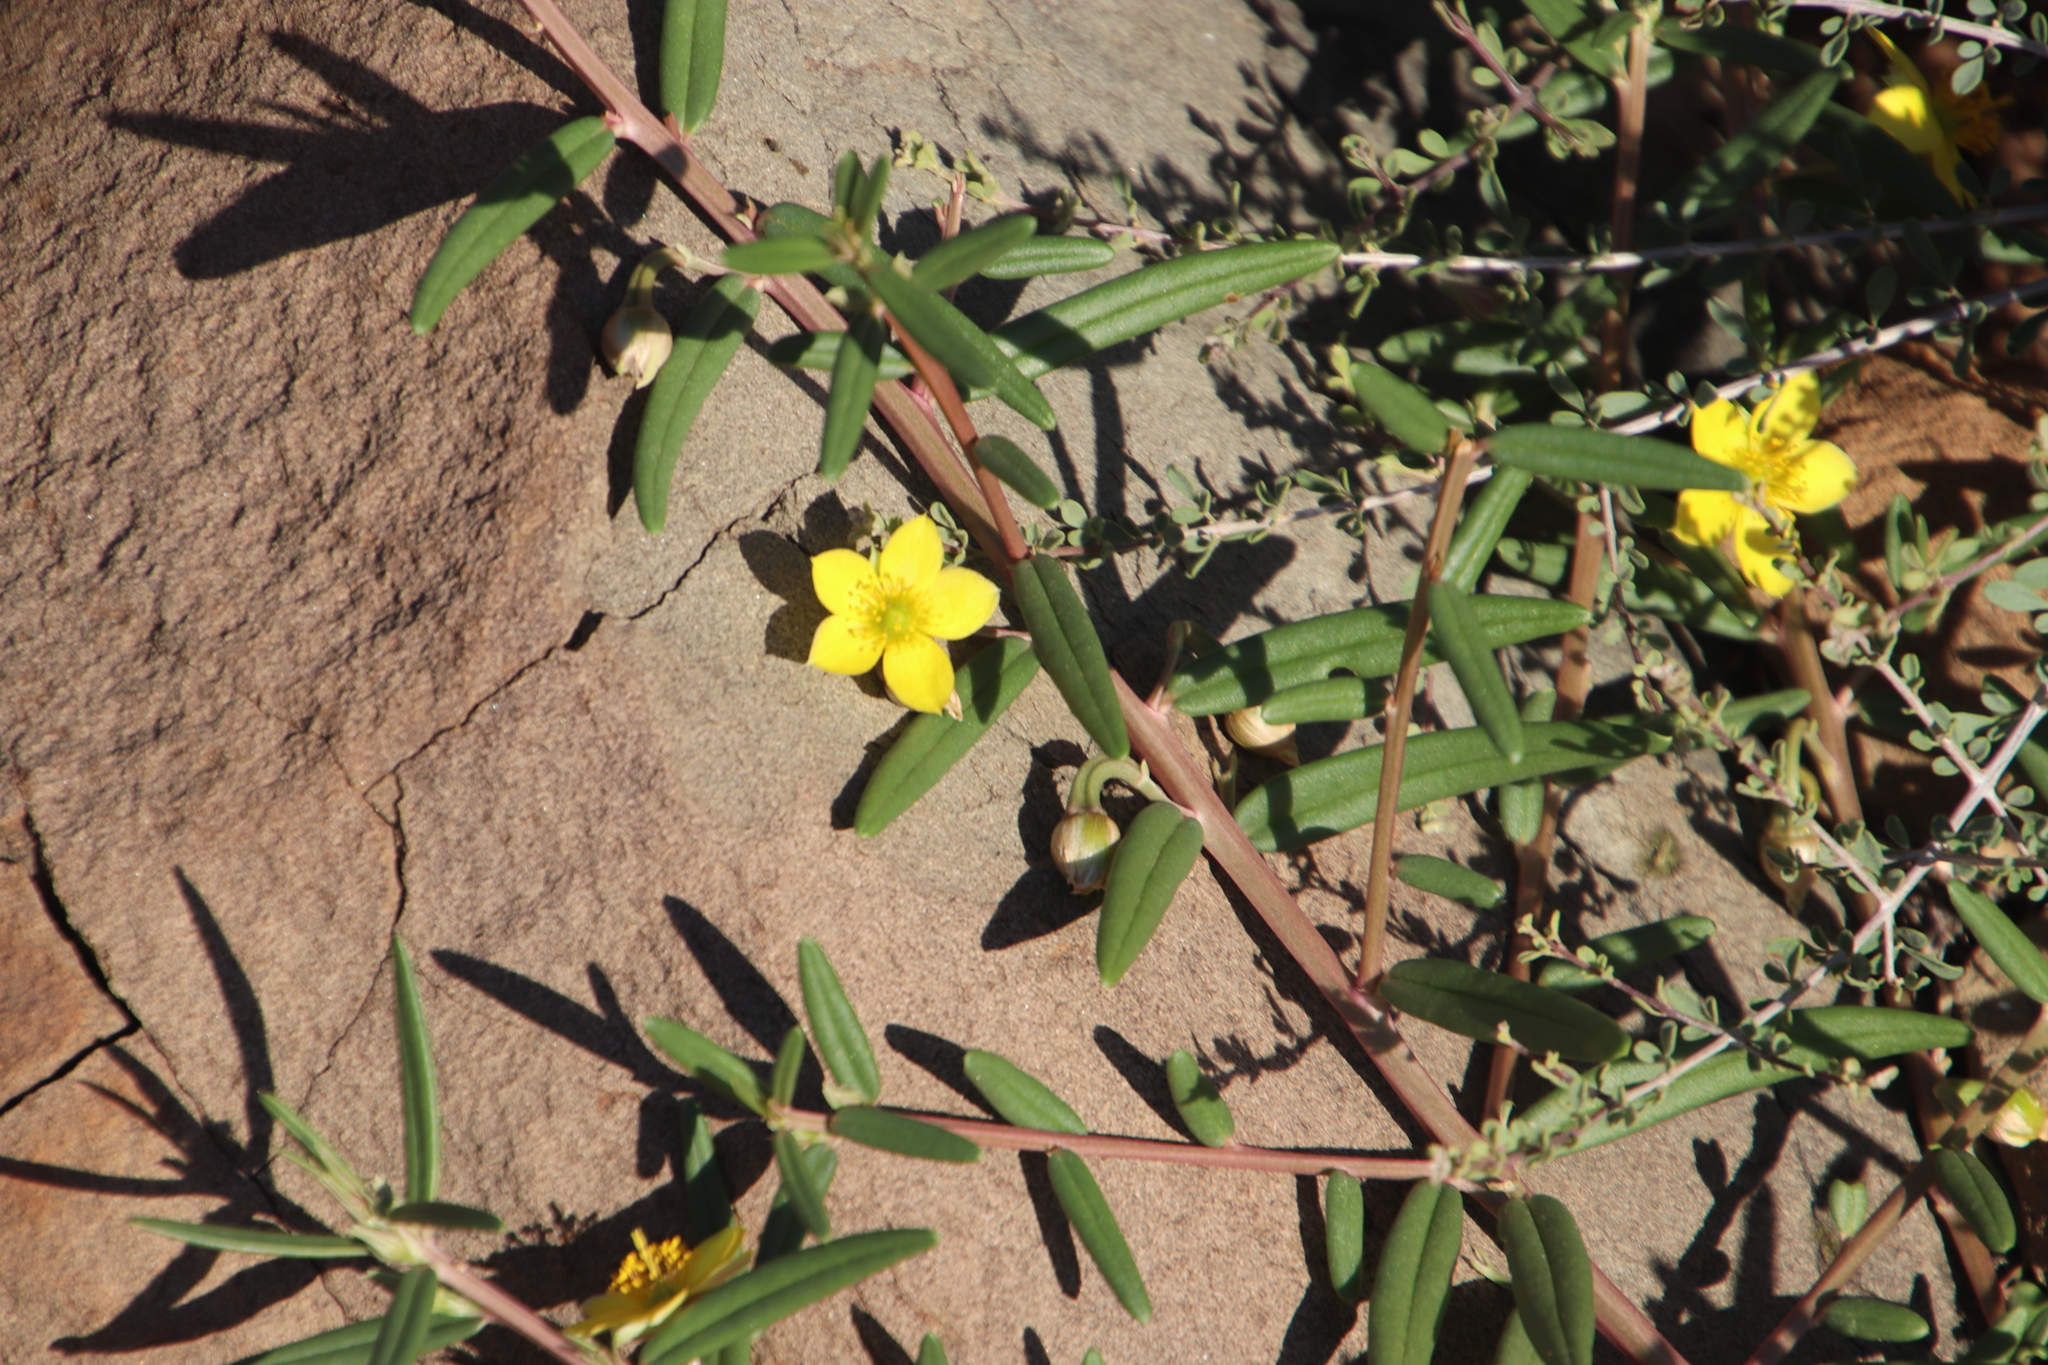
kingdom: Plantae
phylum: Tracheophyta
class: Magnoliopsida
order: Caryophyllales
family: Talinaceae
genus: Talinum
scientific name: Talinum caffrum
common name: Flameflower
